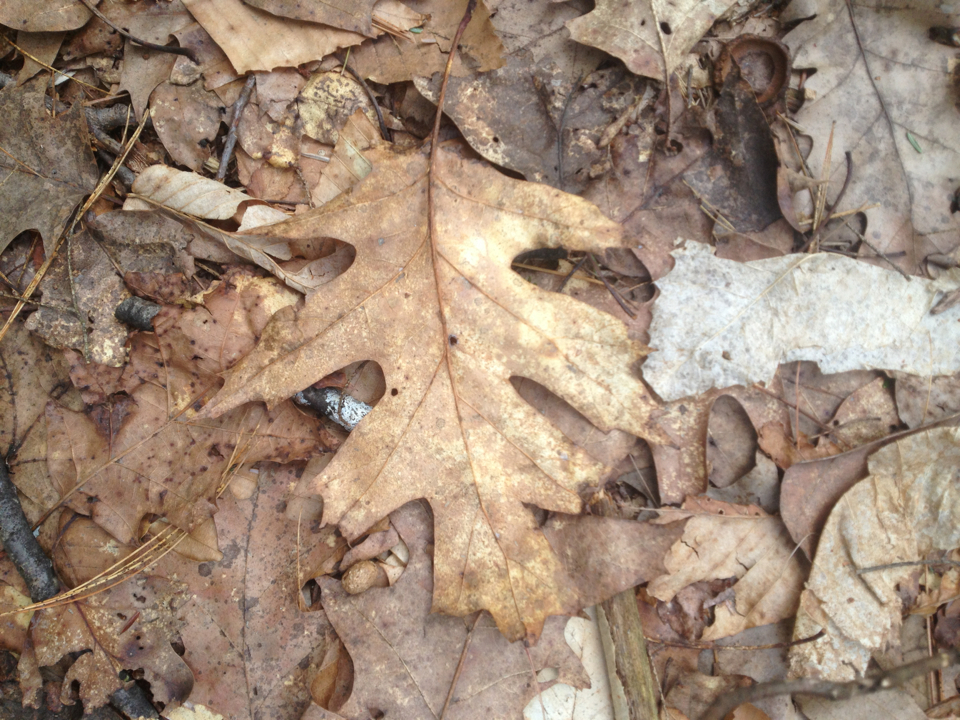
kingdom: Plantae
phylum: Tracheophyta
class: Magnoliopsida
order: Fagales
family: Fagaceae
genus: Quercus
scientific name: Quercus rubra
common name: Red oak
